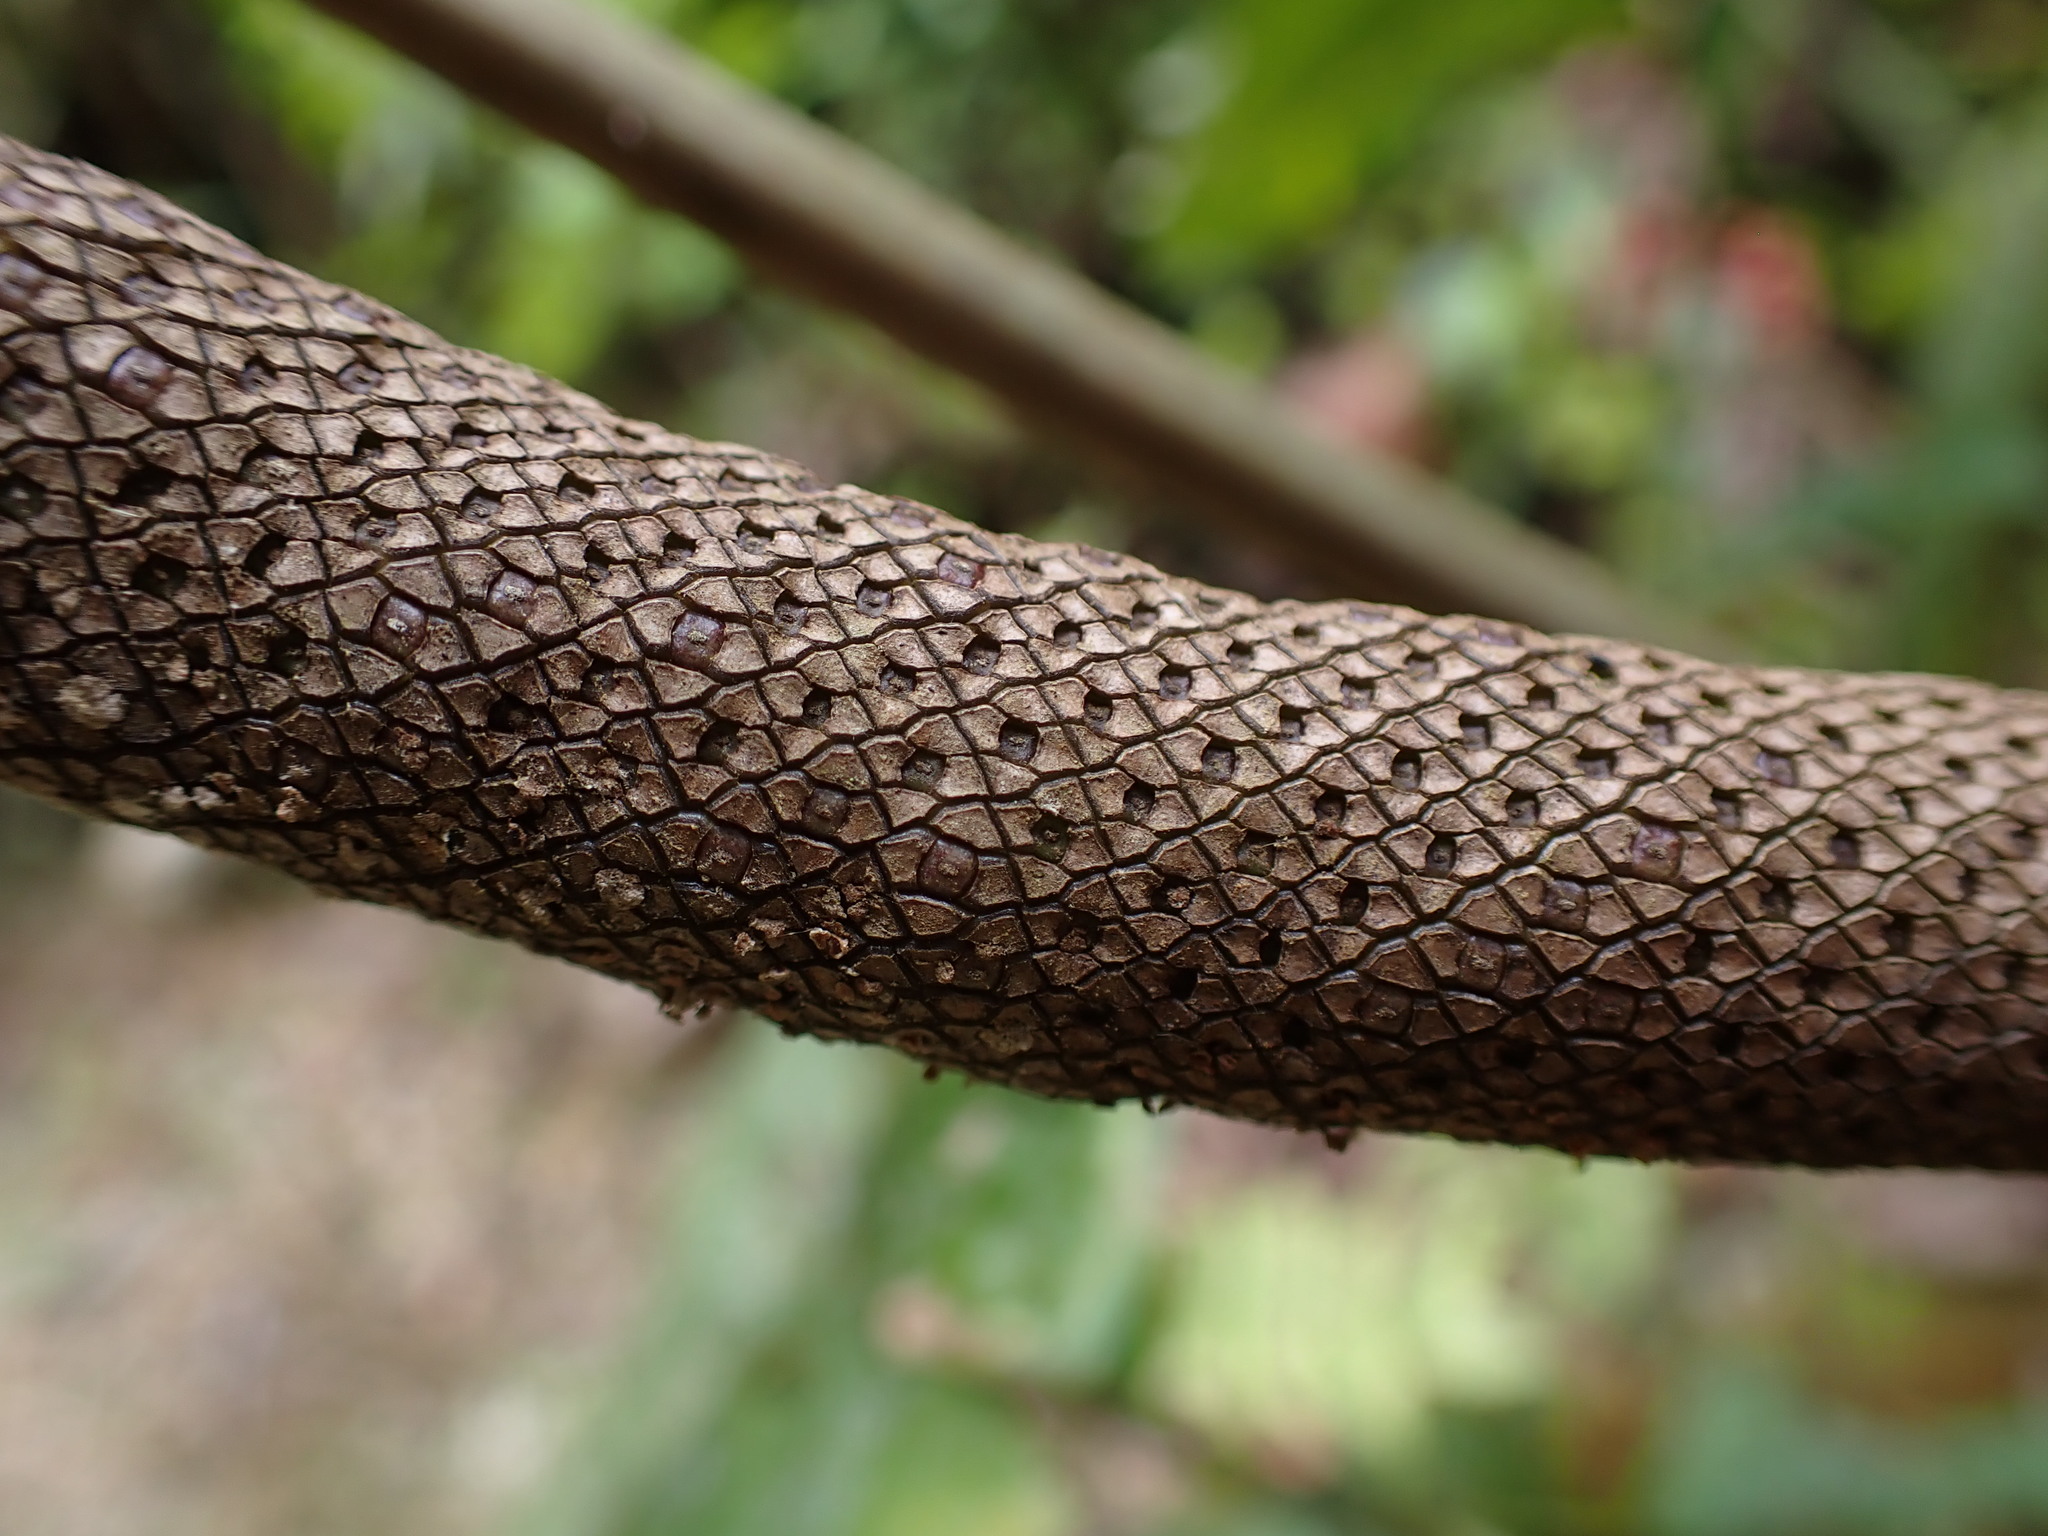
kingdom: Plantae
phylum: Tracheophyta
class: Liliopsida
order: Alismatales
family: Araceae
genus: Anthurium
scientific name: Anthurium nigrescens
